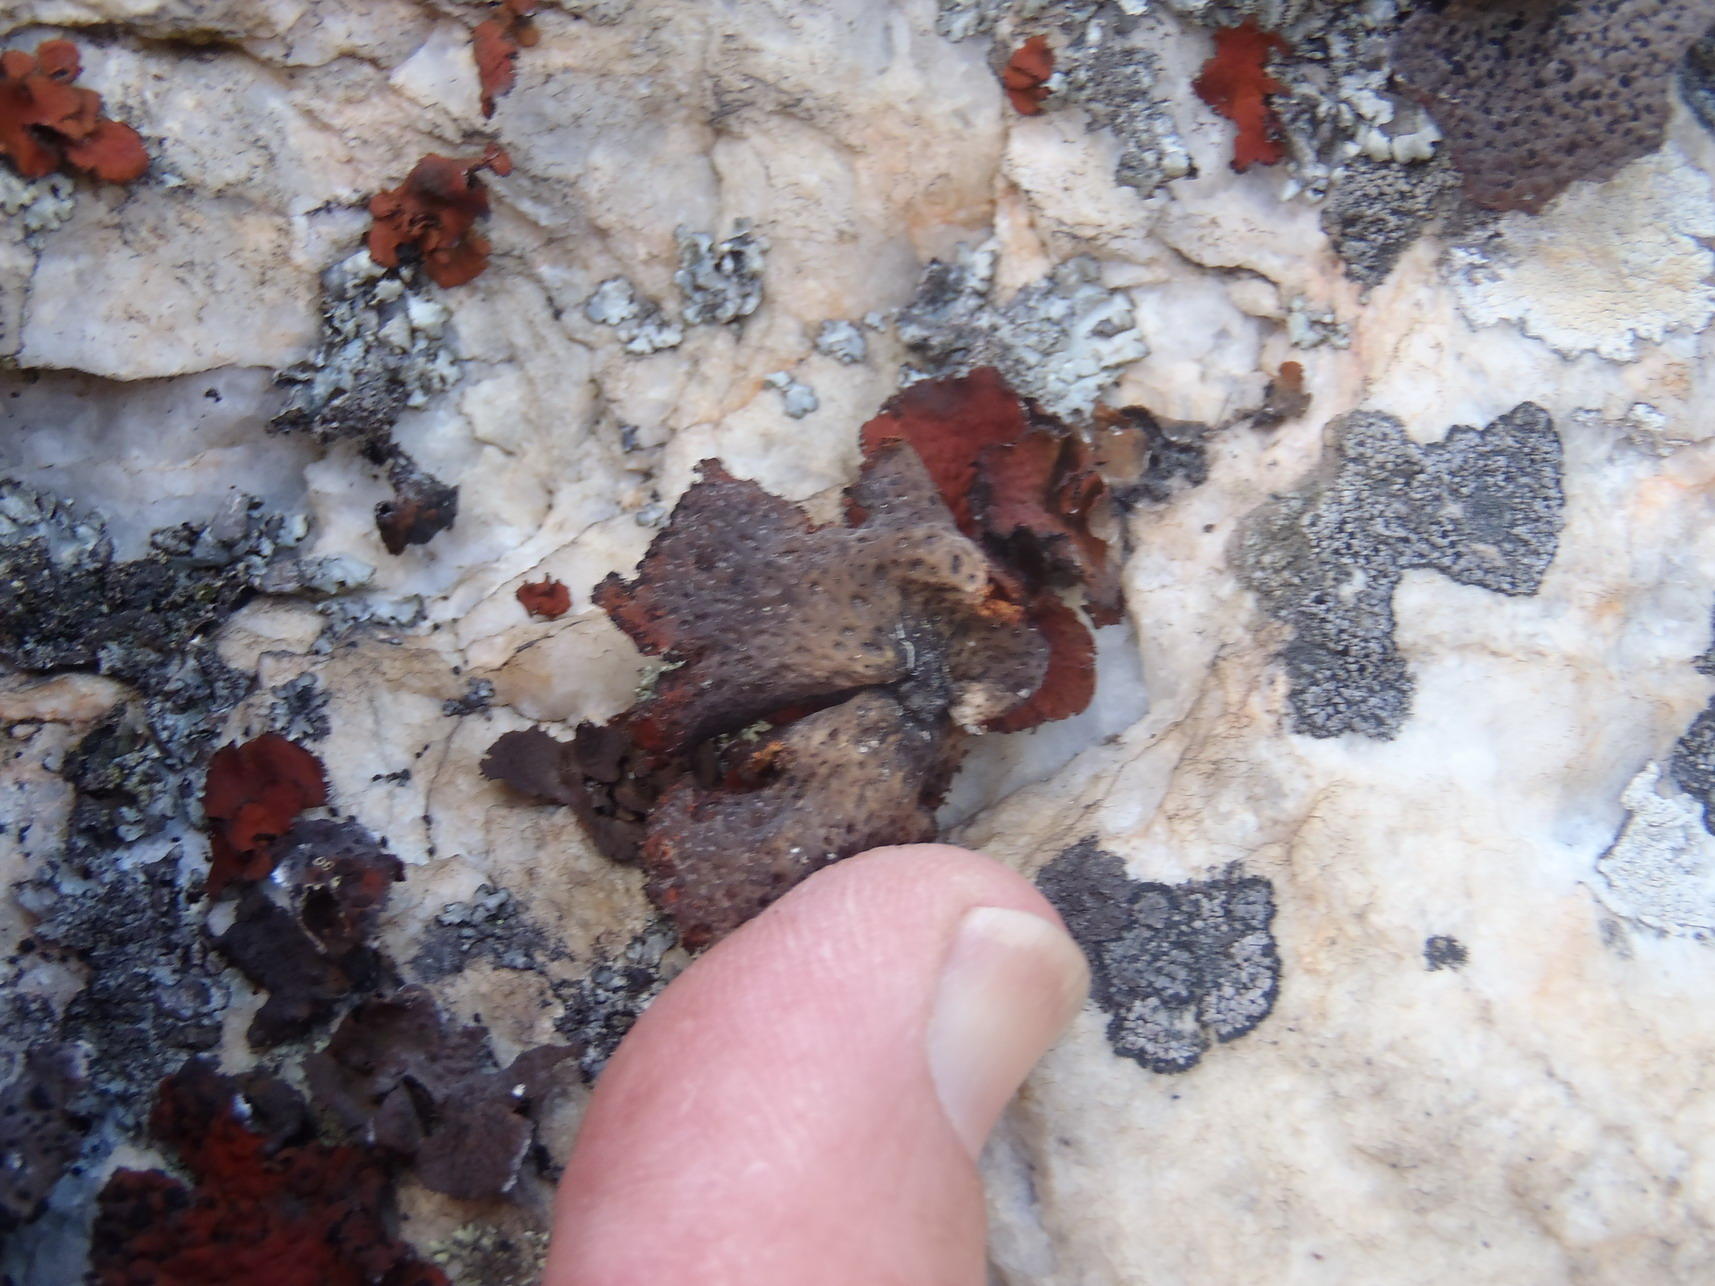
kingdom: Fungi
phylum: Ascomycota
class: Lecanoromycetes
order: Umbilicariales
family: Umbilicariaceae
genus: Lasallia
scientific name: Lasallia rubiginosa
